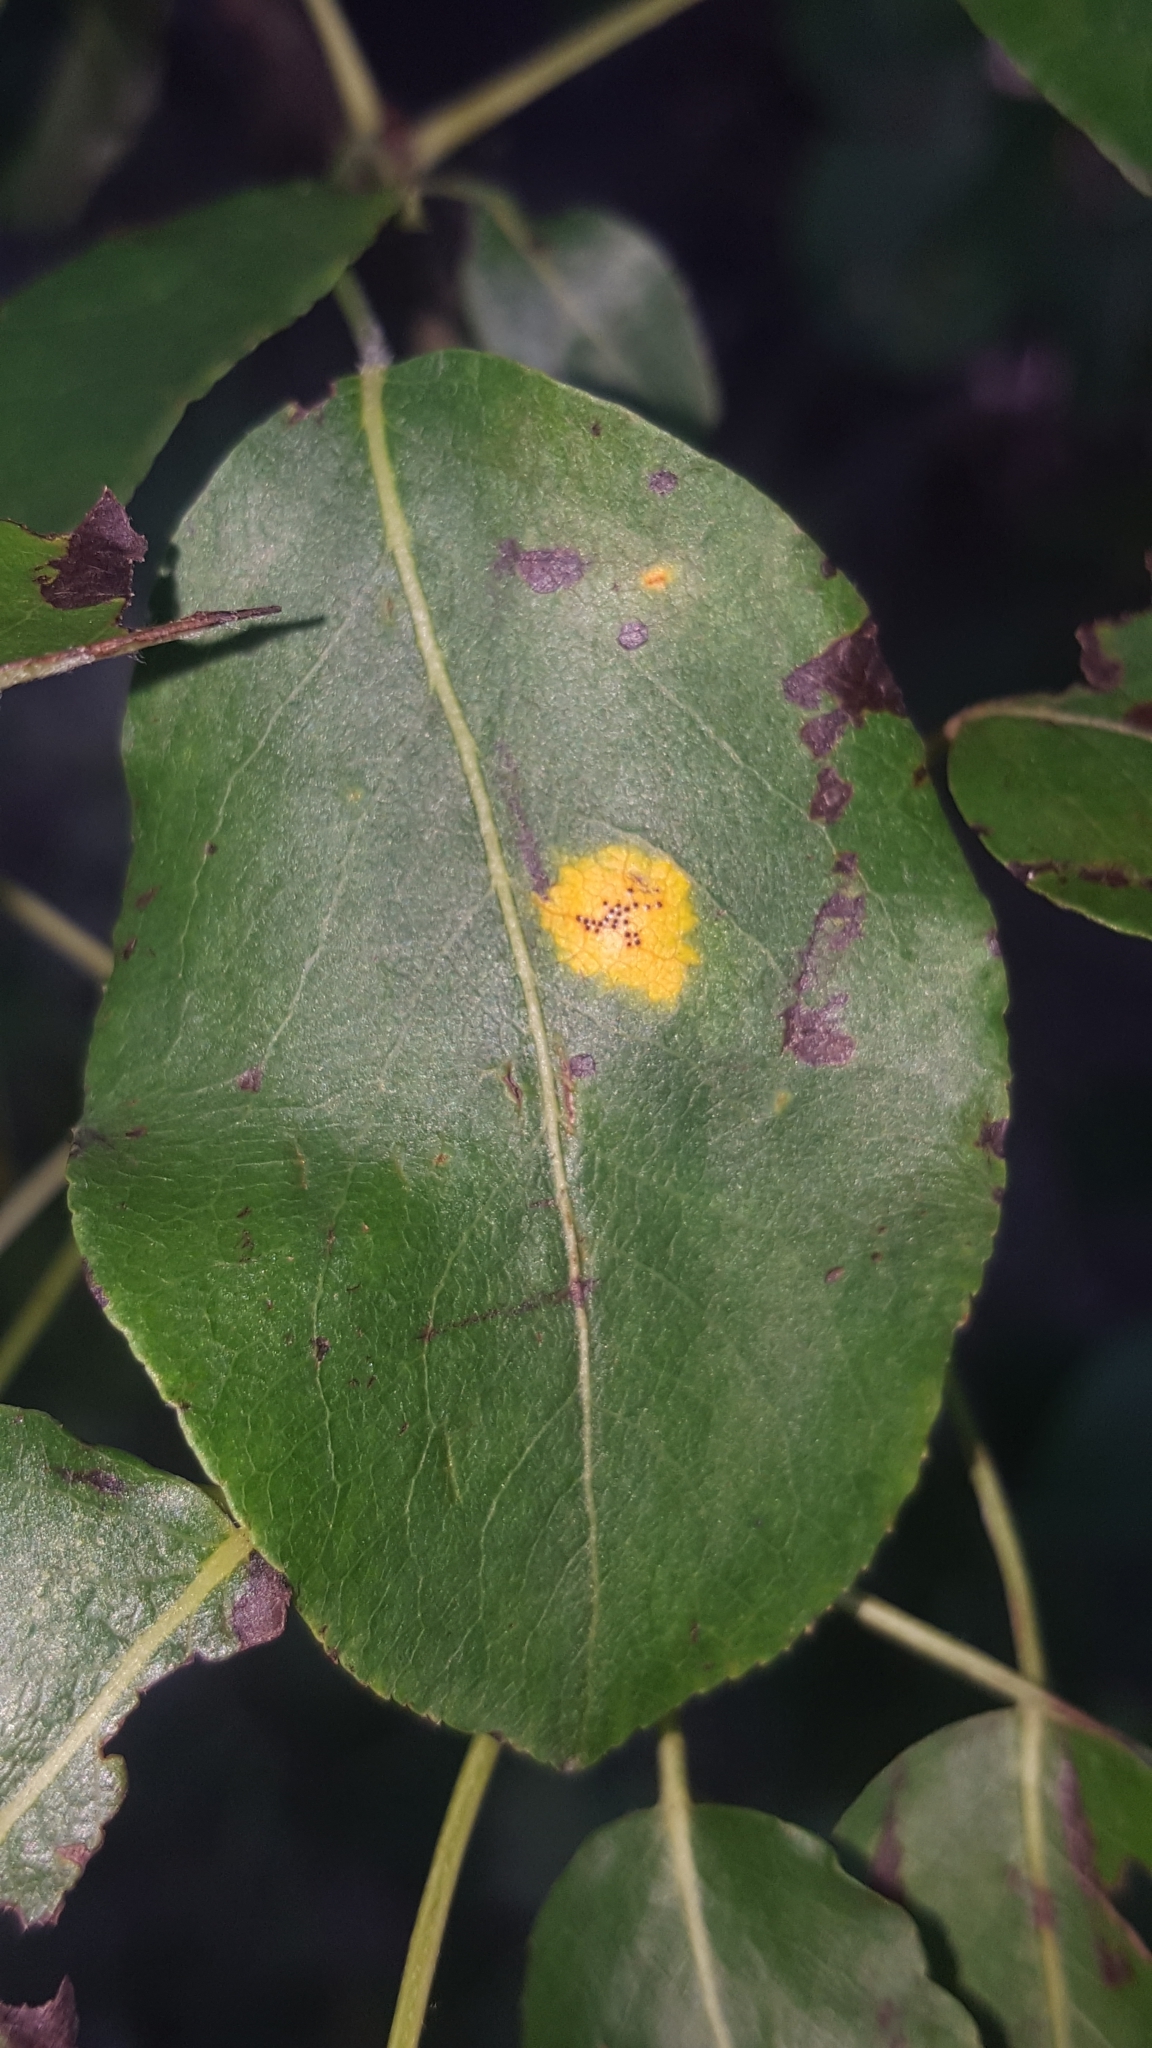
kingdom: Fungi
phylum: Basidiomycota
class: Pucciniomycetes
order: Pucciniales
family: Gymnosporangiaceae
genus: Gymnosporangium
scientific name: Gymnosporangium sabinae
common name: Pear trellis rust fungus
